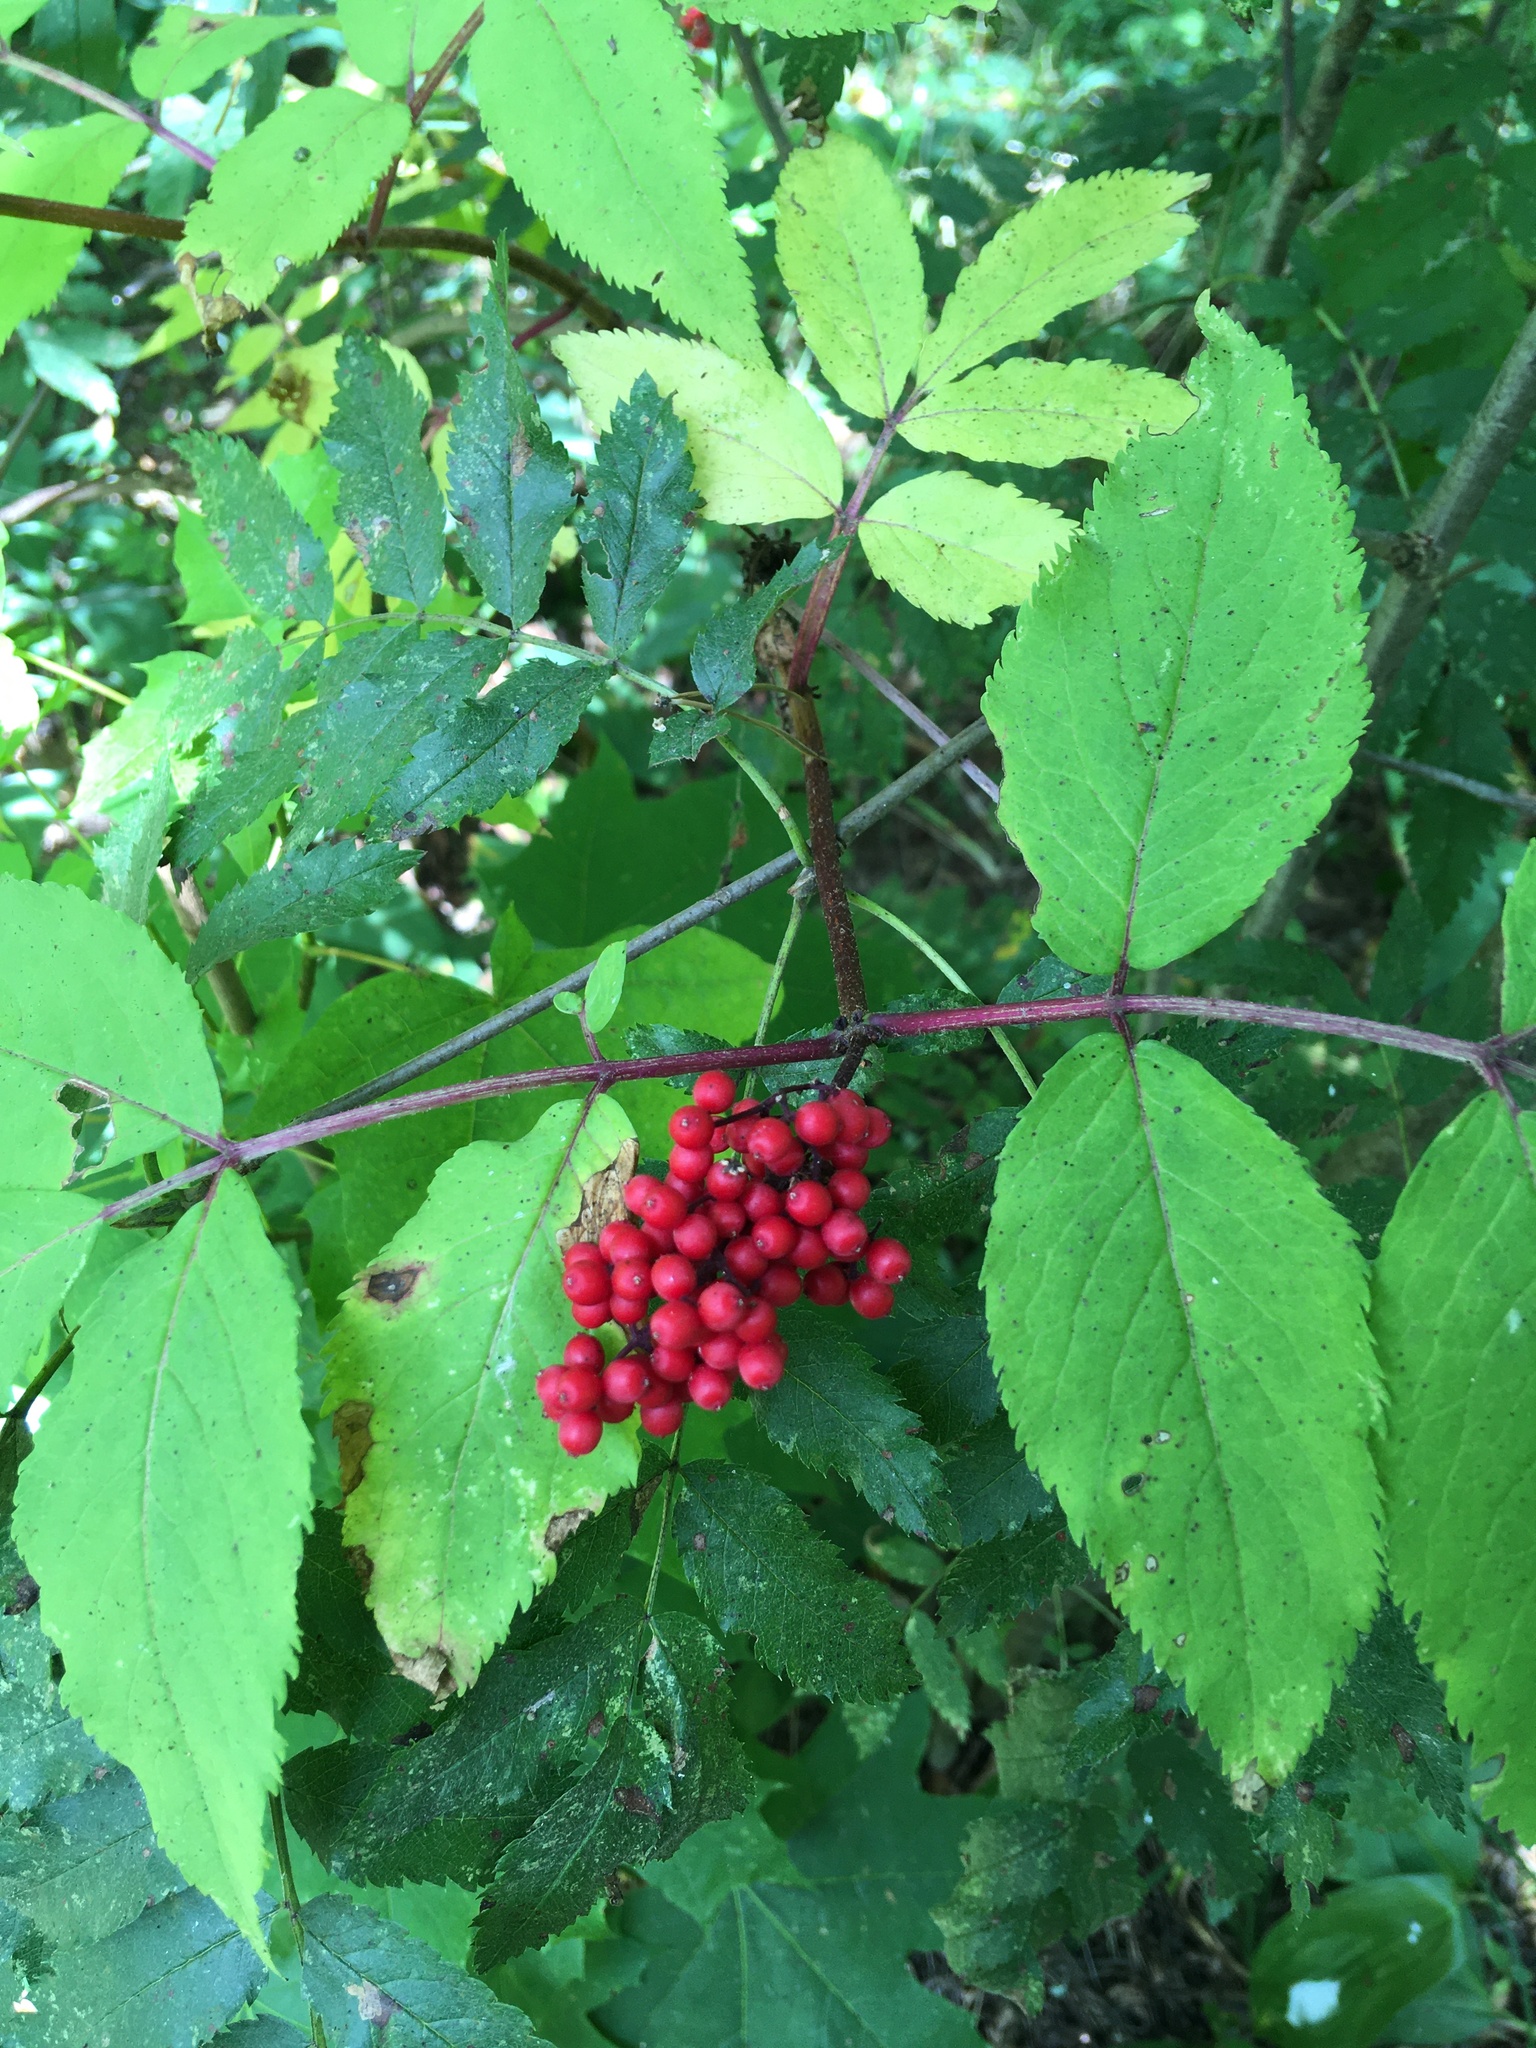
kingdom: Plantae
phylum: Tracheophyta
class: Magnoliopsida
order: Dipsacales
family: Viburnaceae
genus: Sambucus
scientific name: Sambucus racemosa
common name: Red-berried elder
